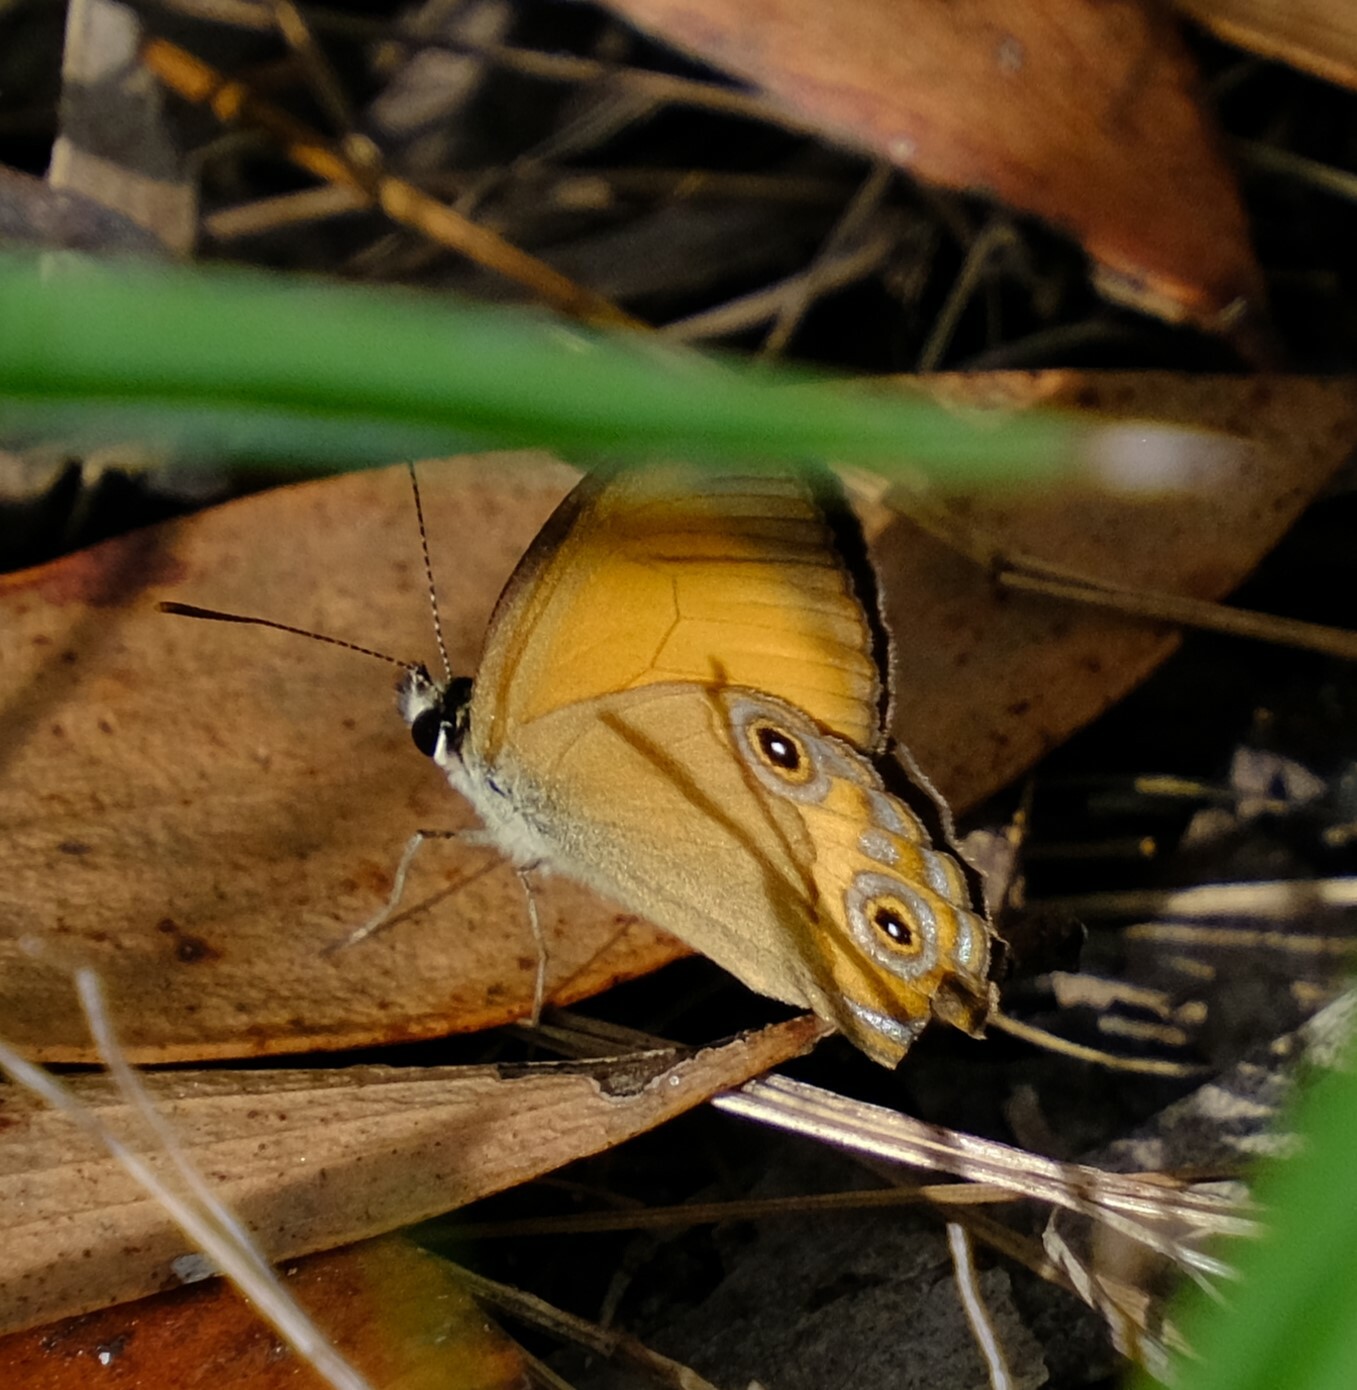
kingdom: Animalia
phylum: Arthropoda
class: Insecta
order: Lepidoptera
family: Nymphalidae
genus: Hypocysta
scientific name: Hypocysta adiante
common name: Orange ringlet
